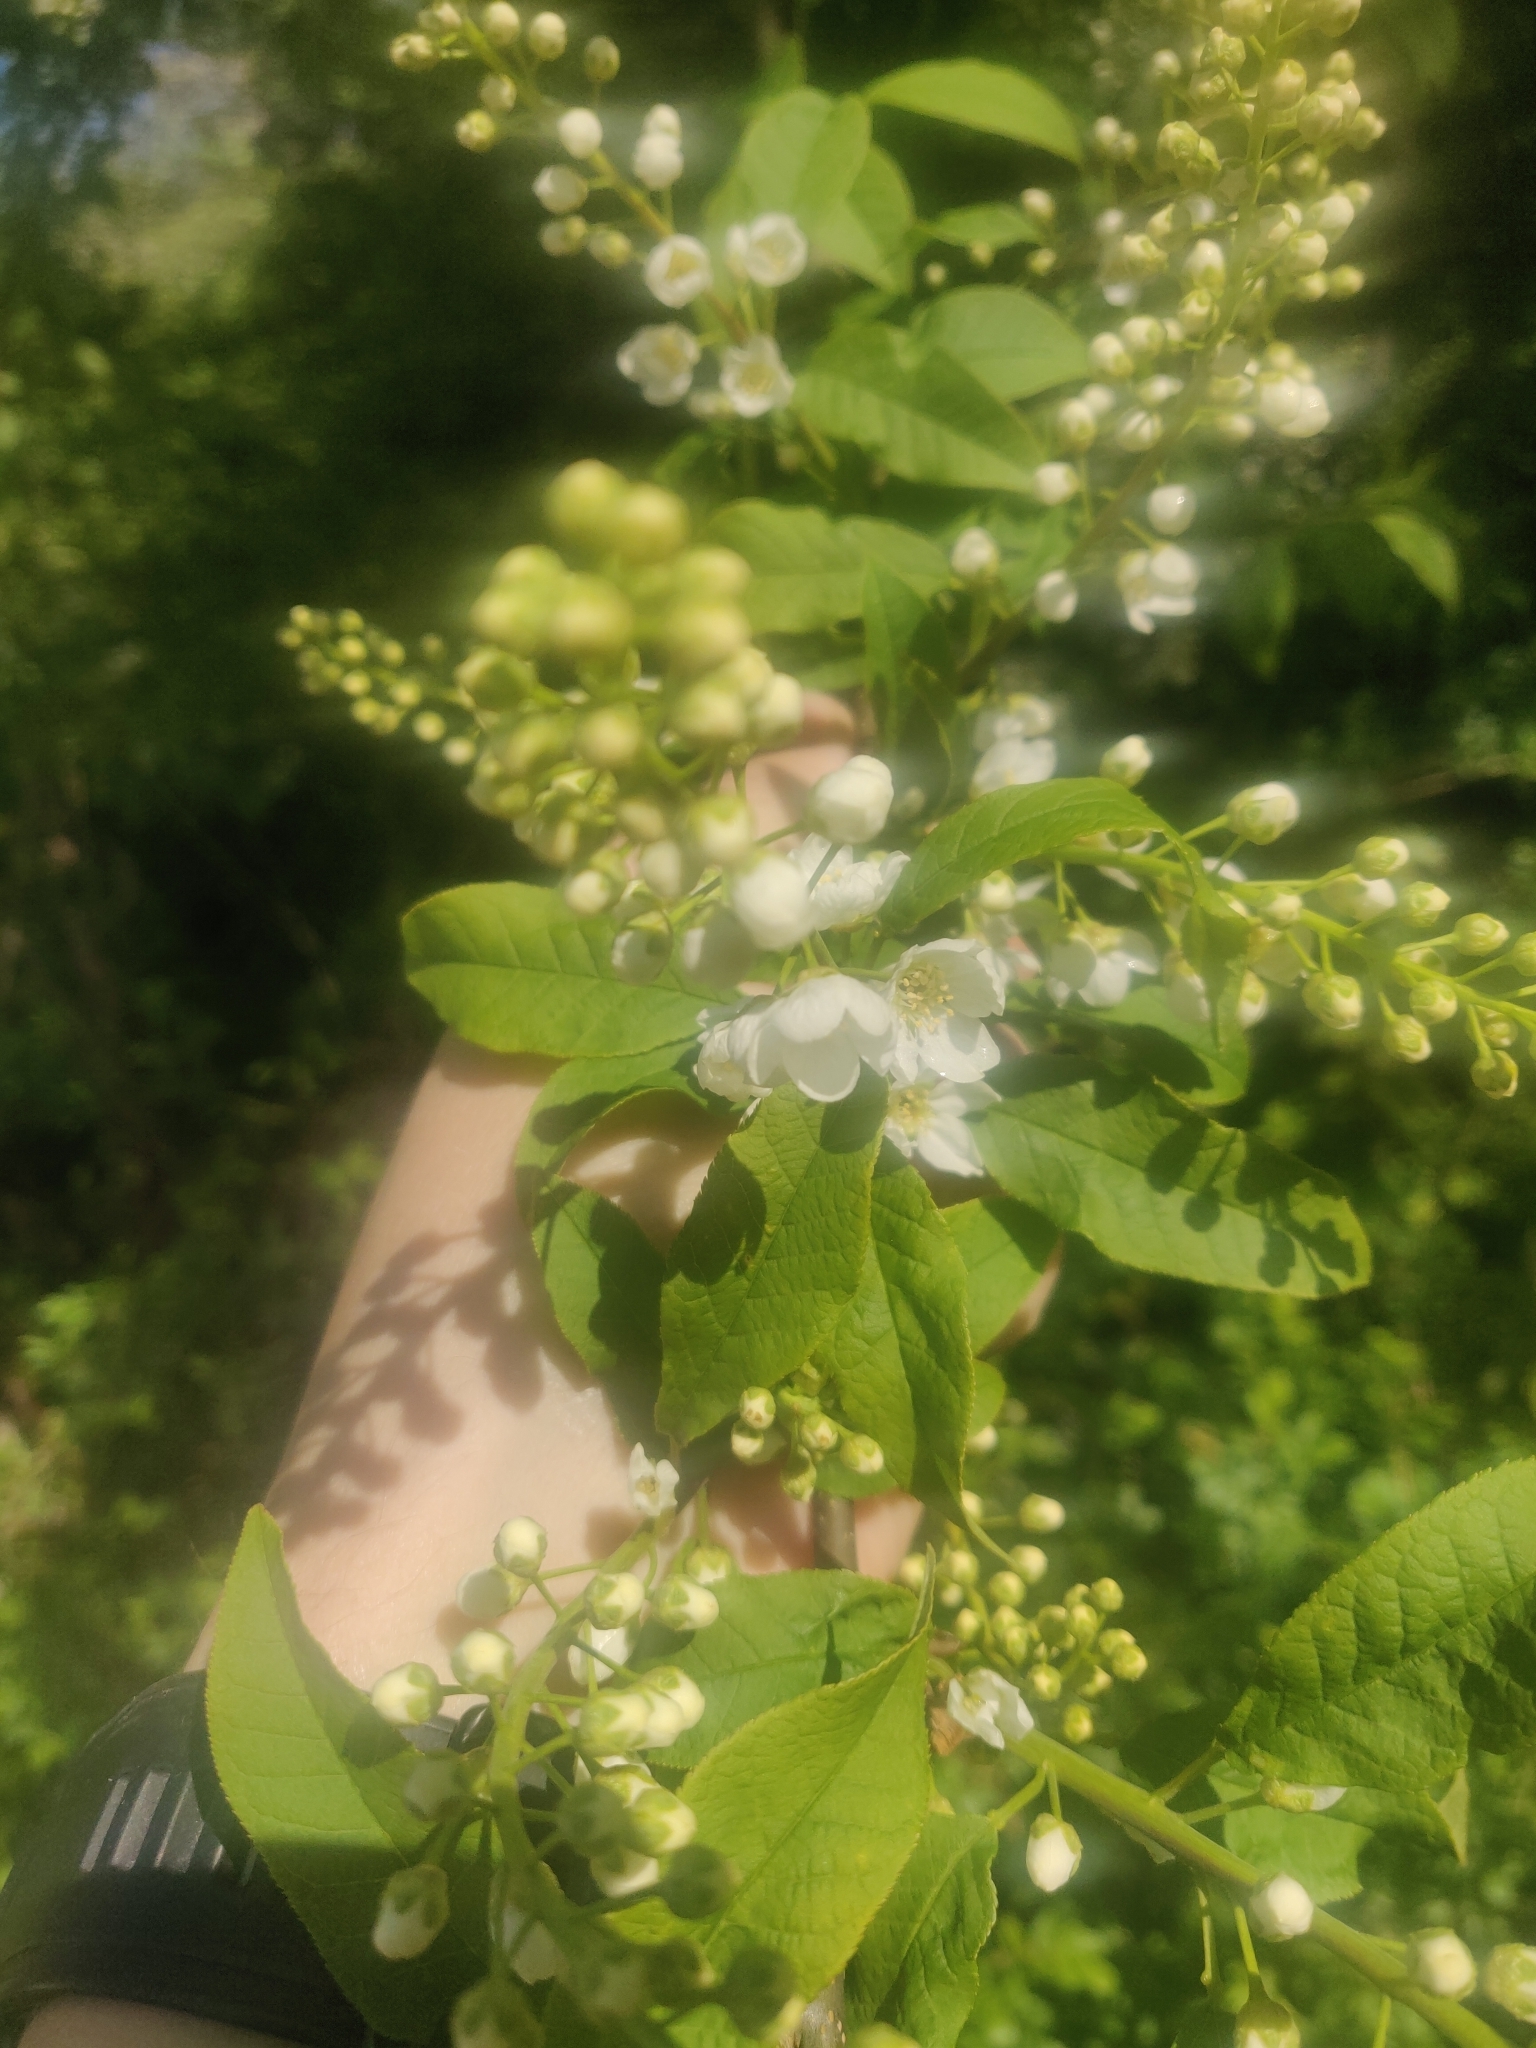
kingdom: Plantae
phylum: Tracheophyta
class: Magnoliopsida
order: Rosales
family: Rosaceae
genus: Prunus
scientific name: Prunus padus
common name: Bird cherry
